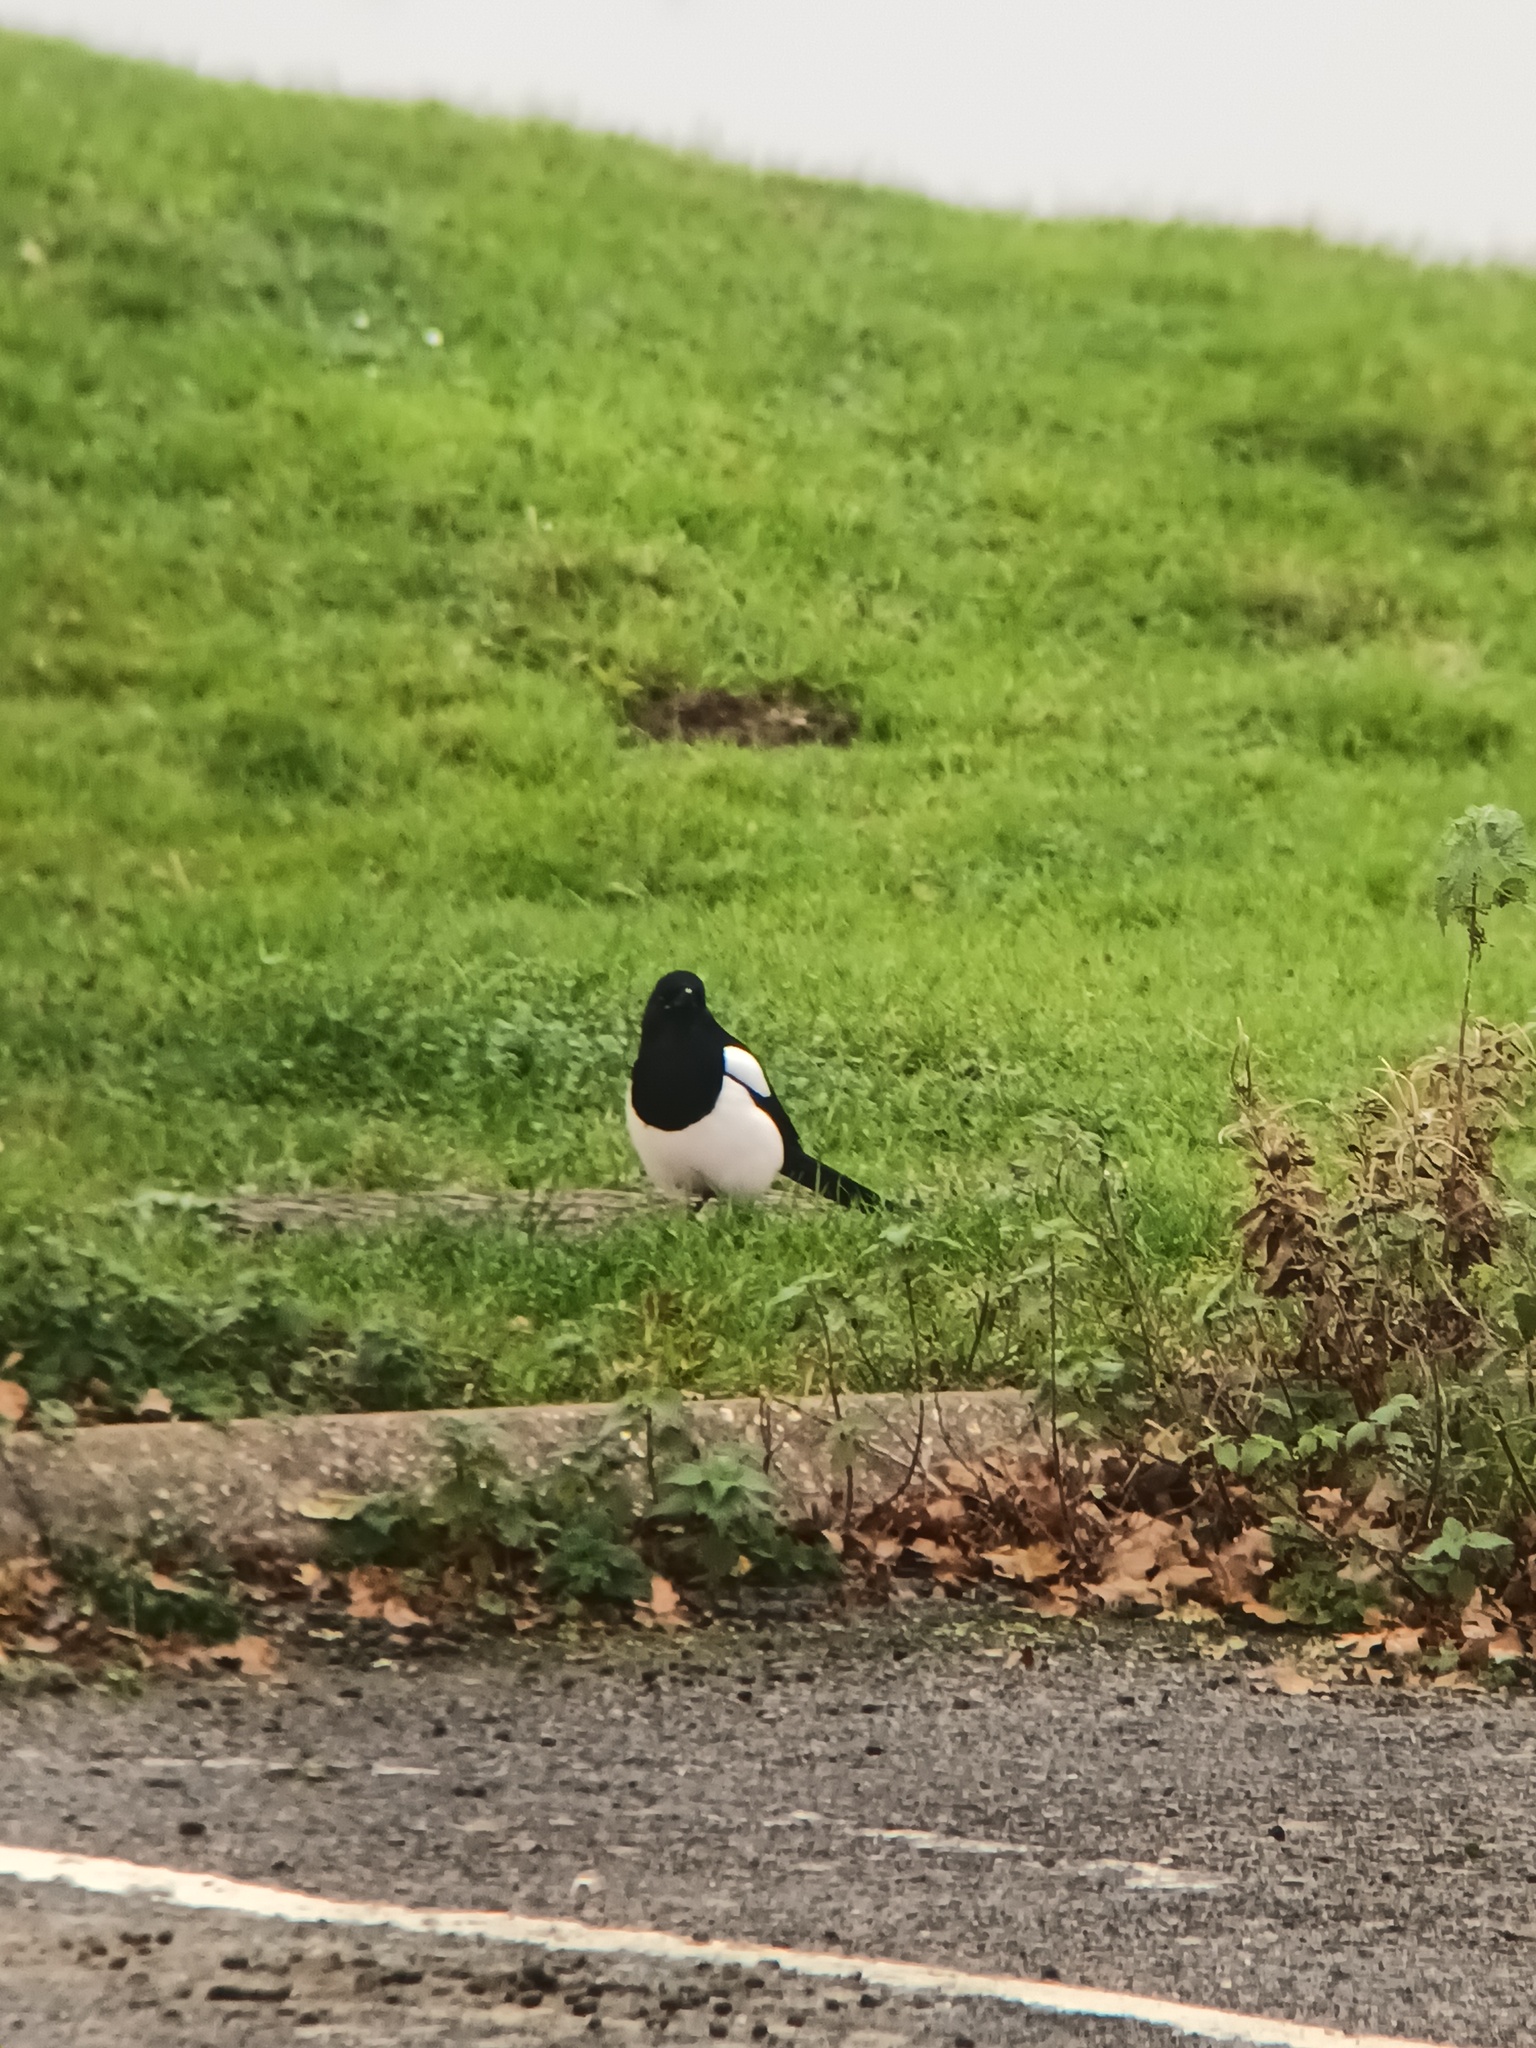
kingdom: Animalia
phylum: Chordata
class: Aves
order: Passeriformes
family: Corvidae
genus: Pica
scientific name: Pica pica
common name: Eurasian magpie
